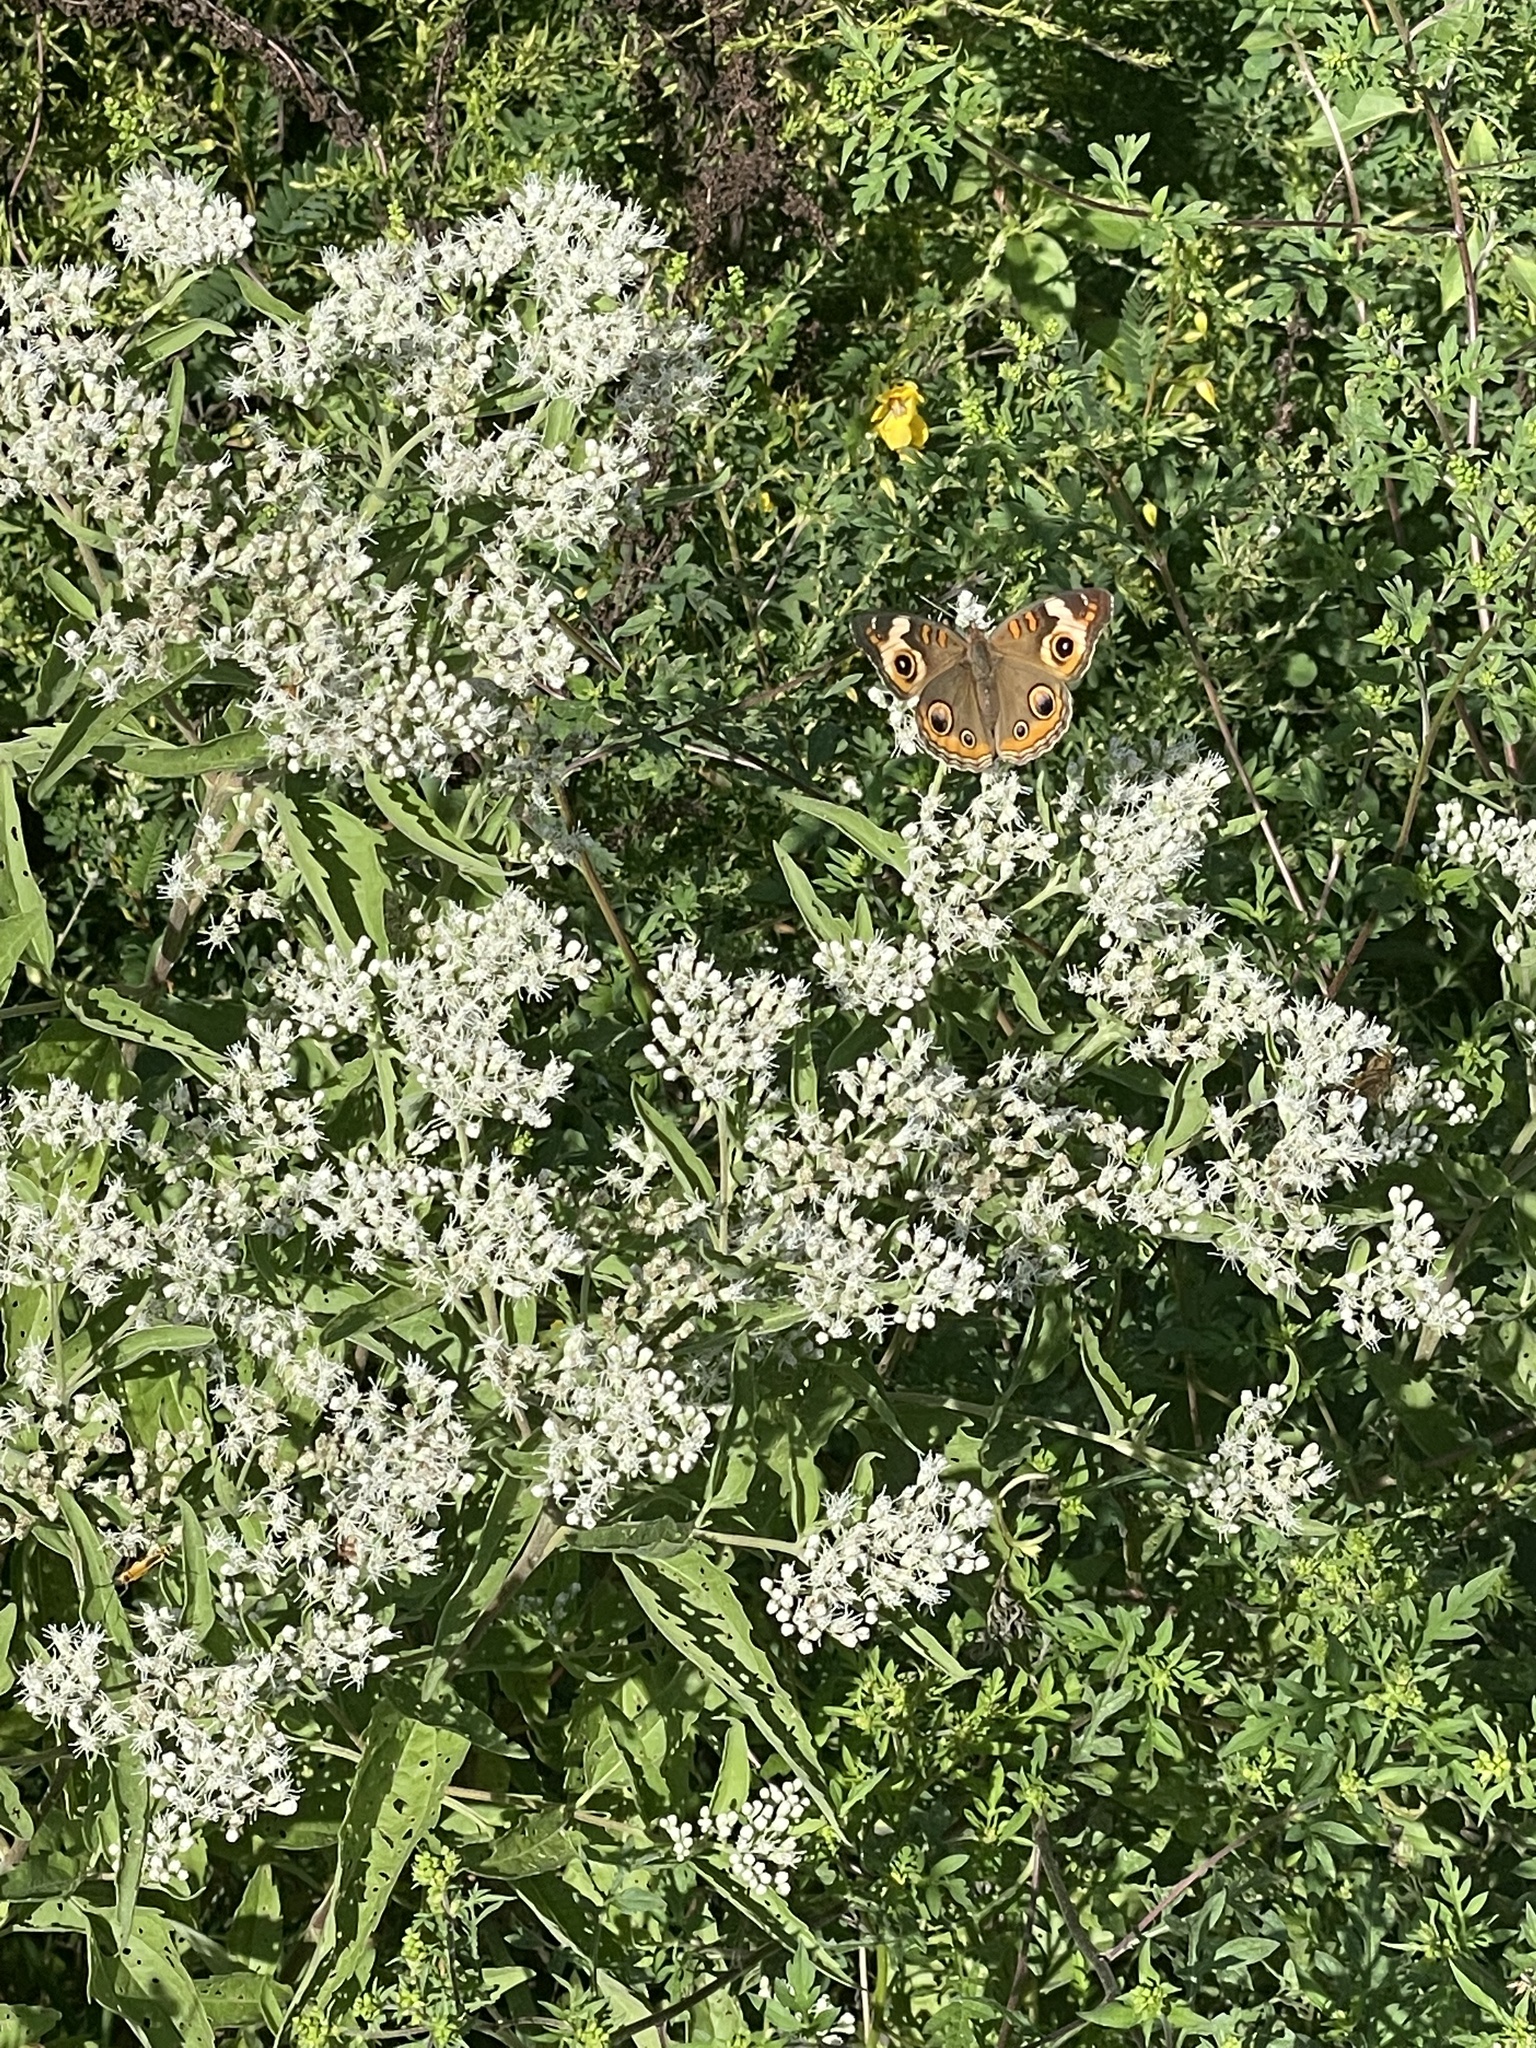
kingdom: Animalia
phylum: Arthropoda
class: Insecta
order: Lepidoptera
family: Nymphalidae
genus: Junonia
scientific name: Junonia coenia
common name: Common buckeye
